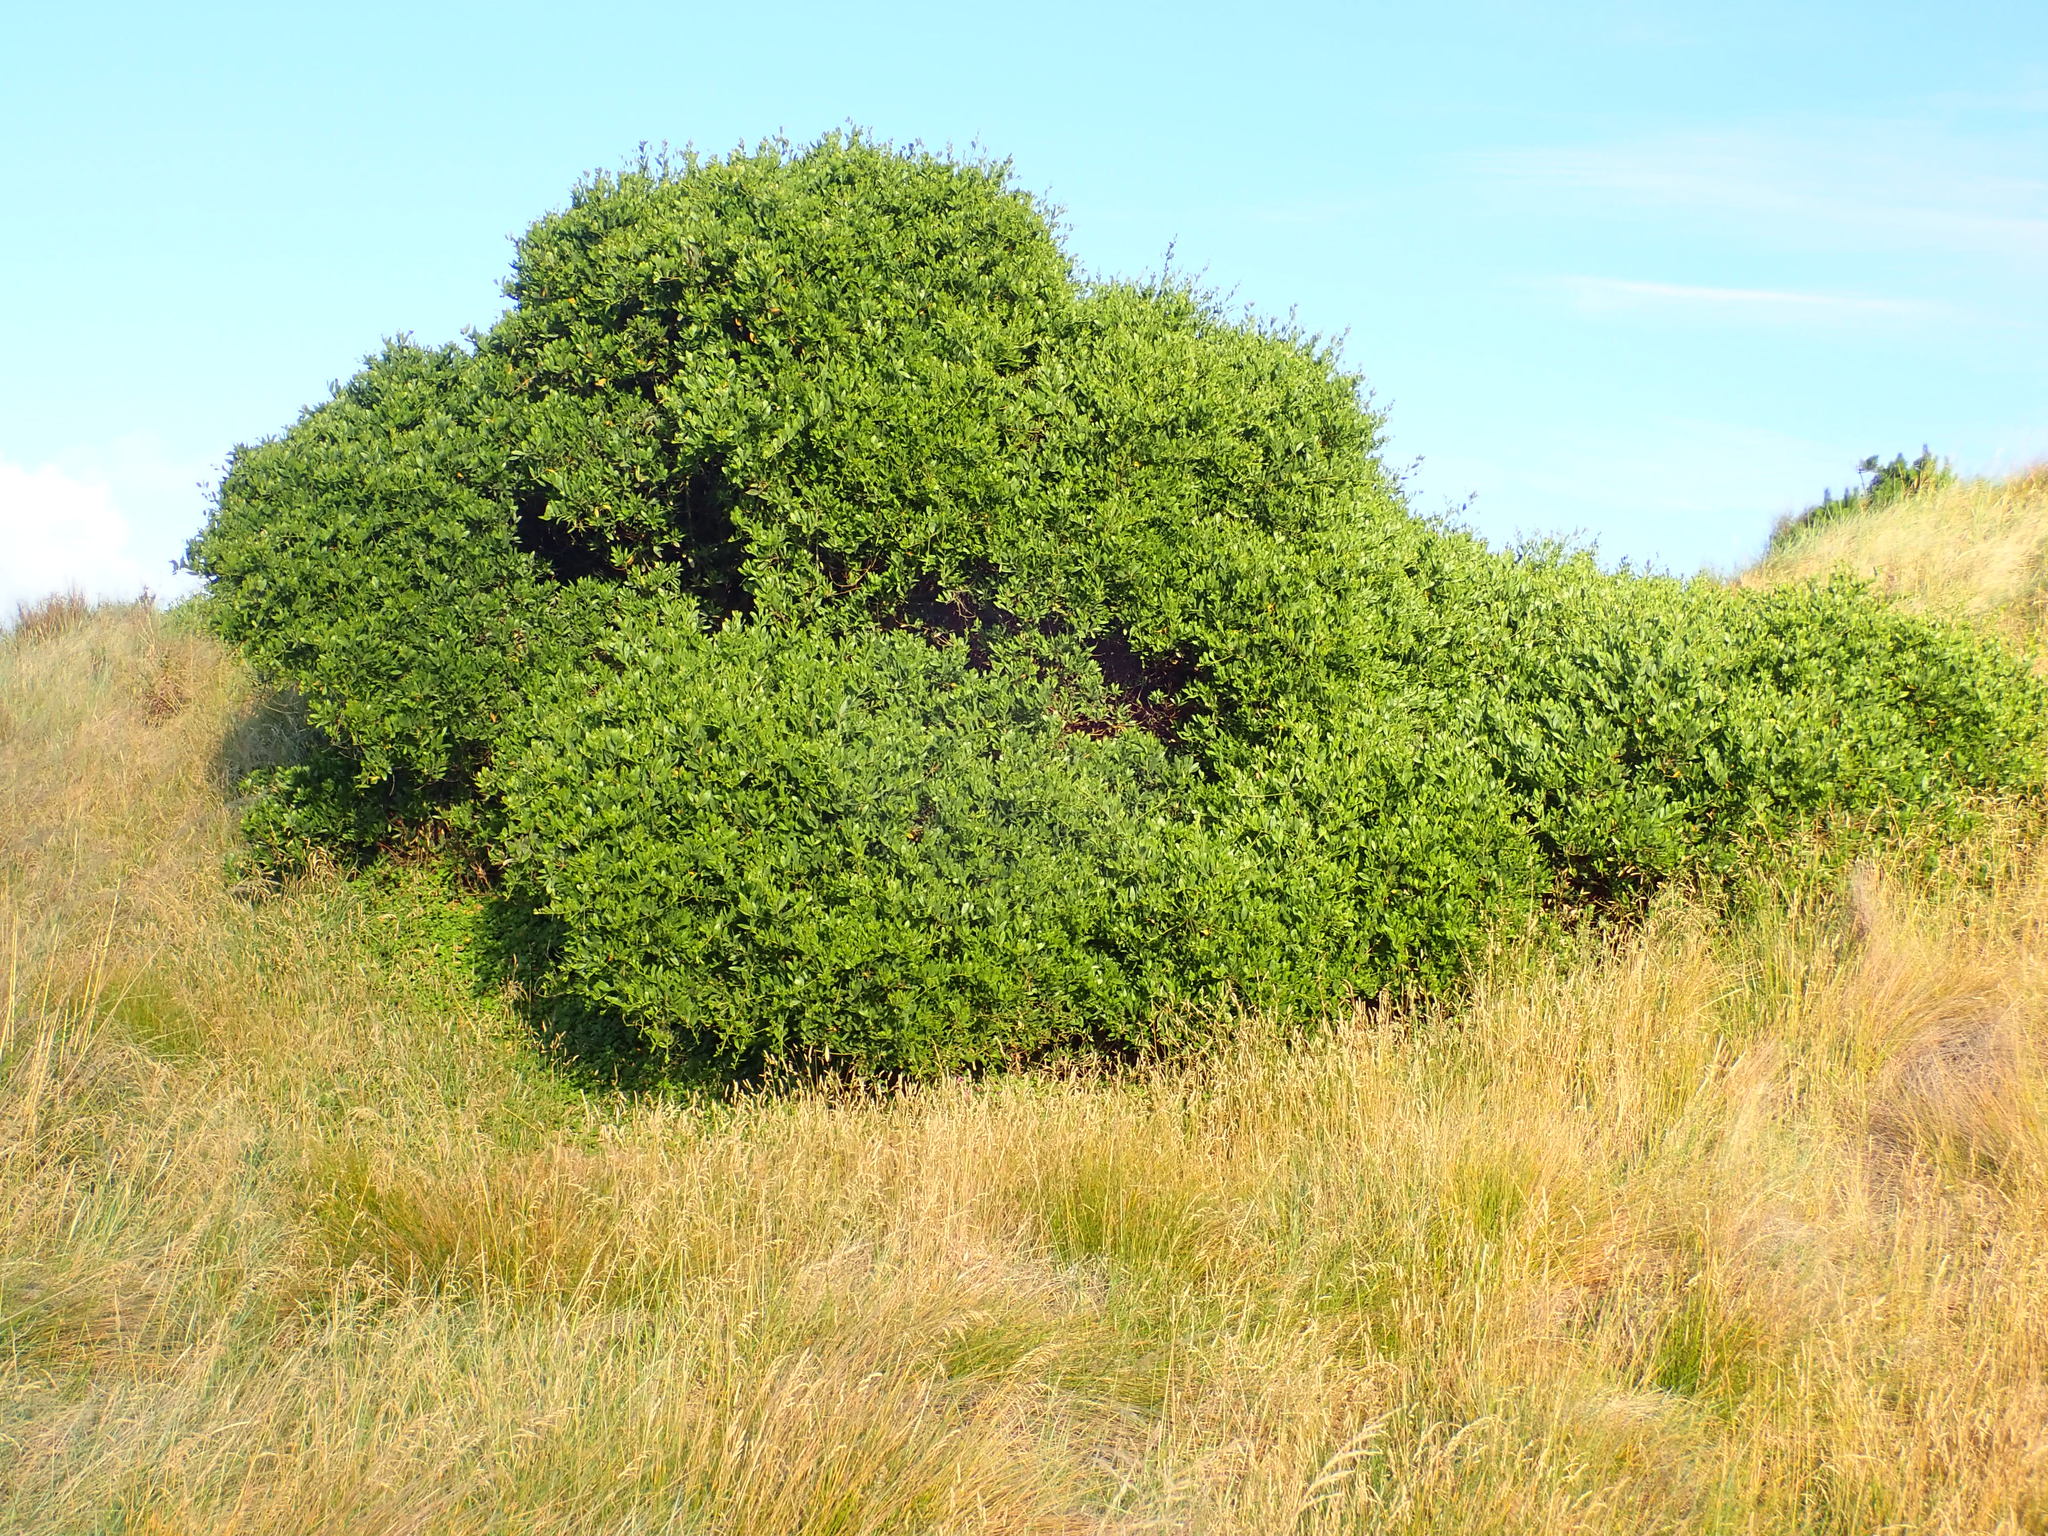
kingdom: Plantae
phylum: Tracheophyta
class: Magnoliopsida
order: Fabales
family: Fabaceae
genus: Acacia
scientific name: Acacia longifolia
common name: Sydney golden wattle
